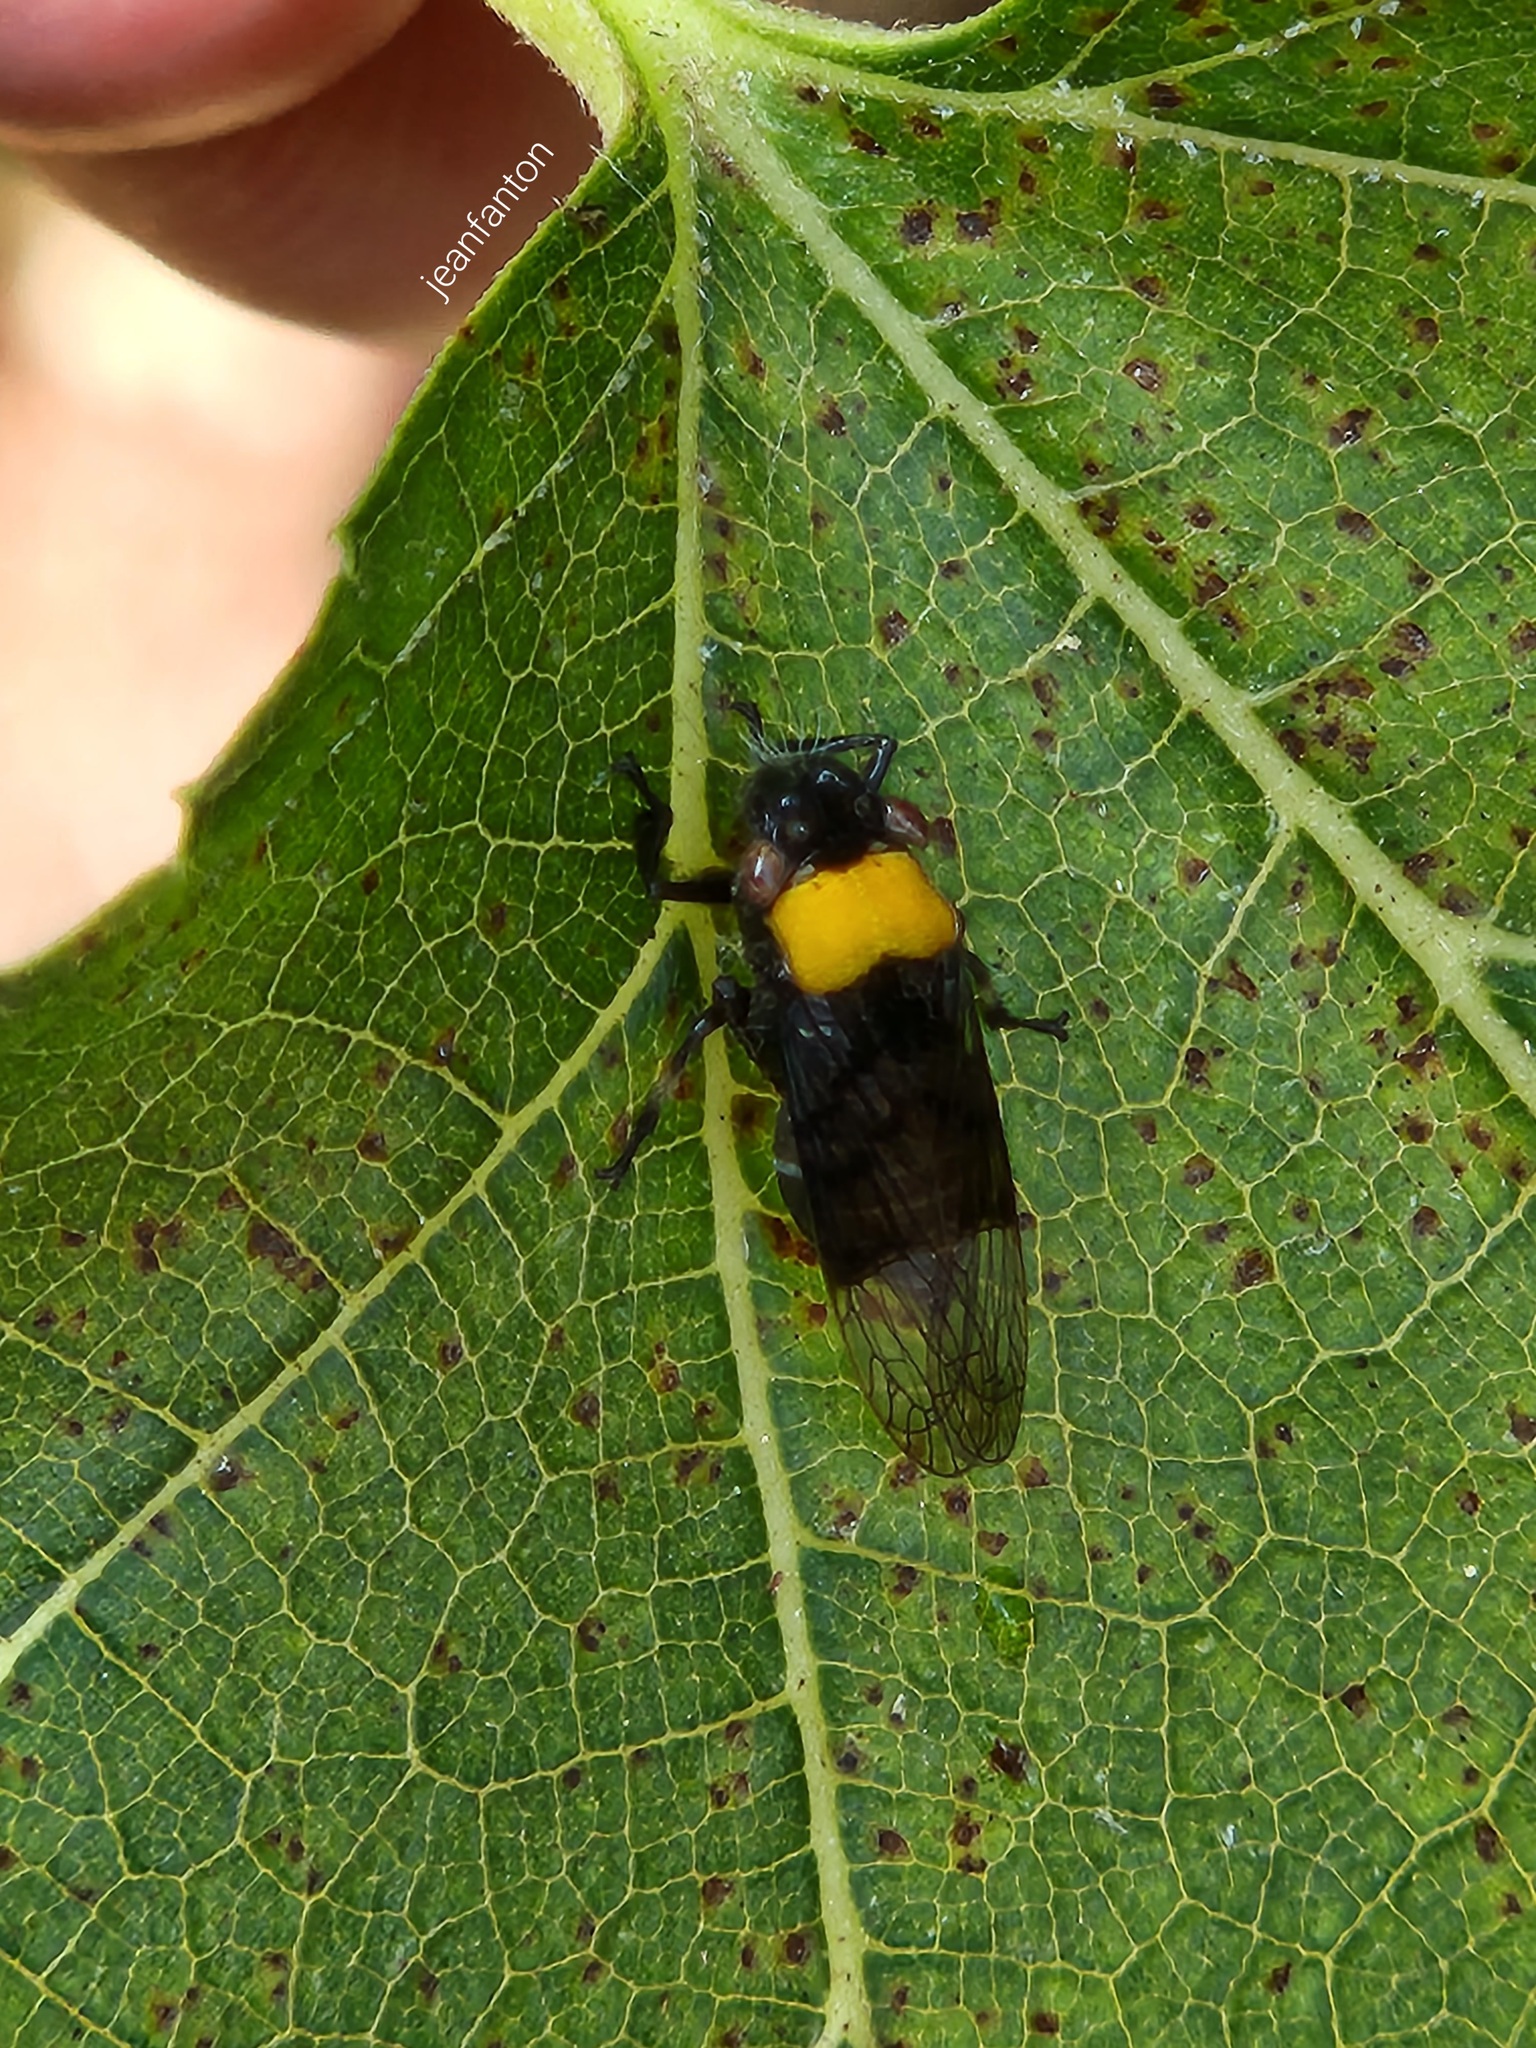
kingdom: Animalia
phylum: Arthropoda
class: Insecta
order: Hemiptera
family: Cicadellidae
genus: Teletusa
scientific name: Teletusa limpida
